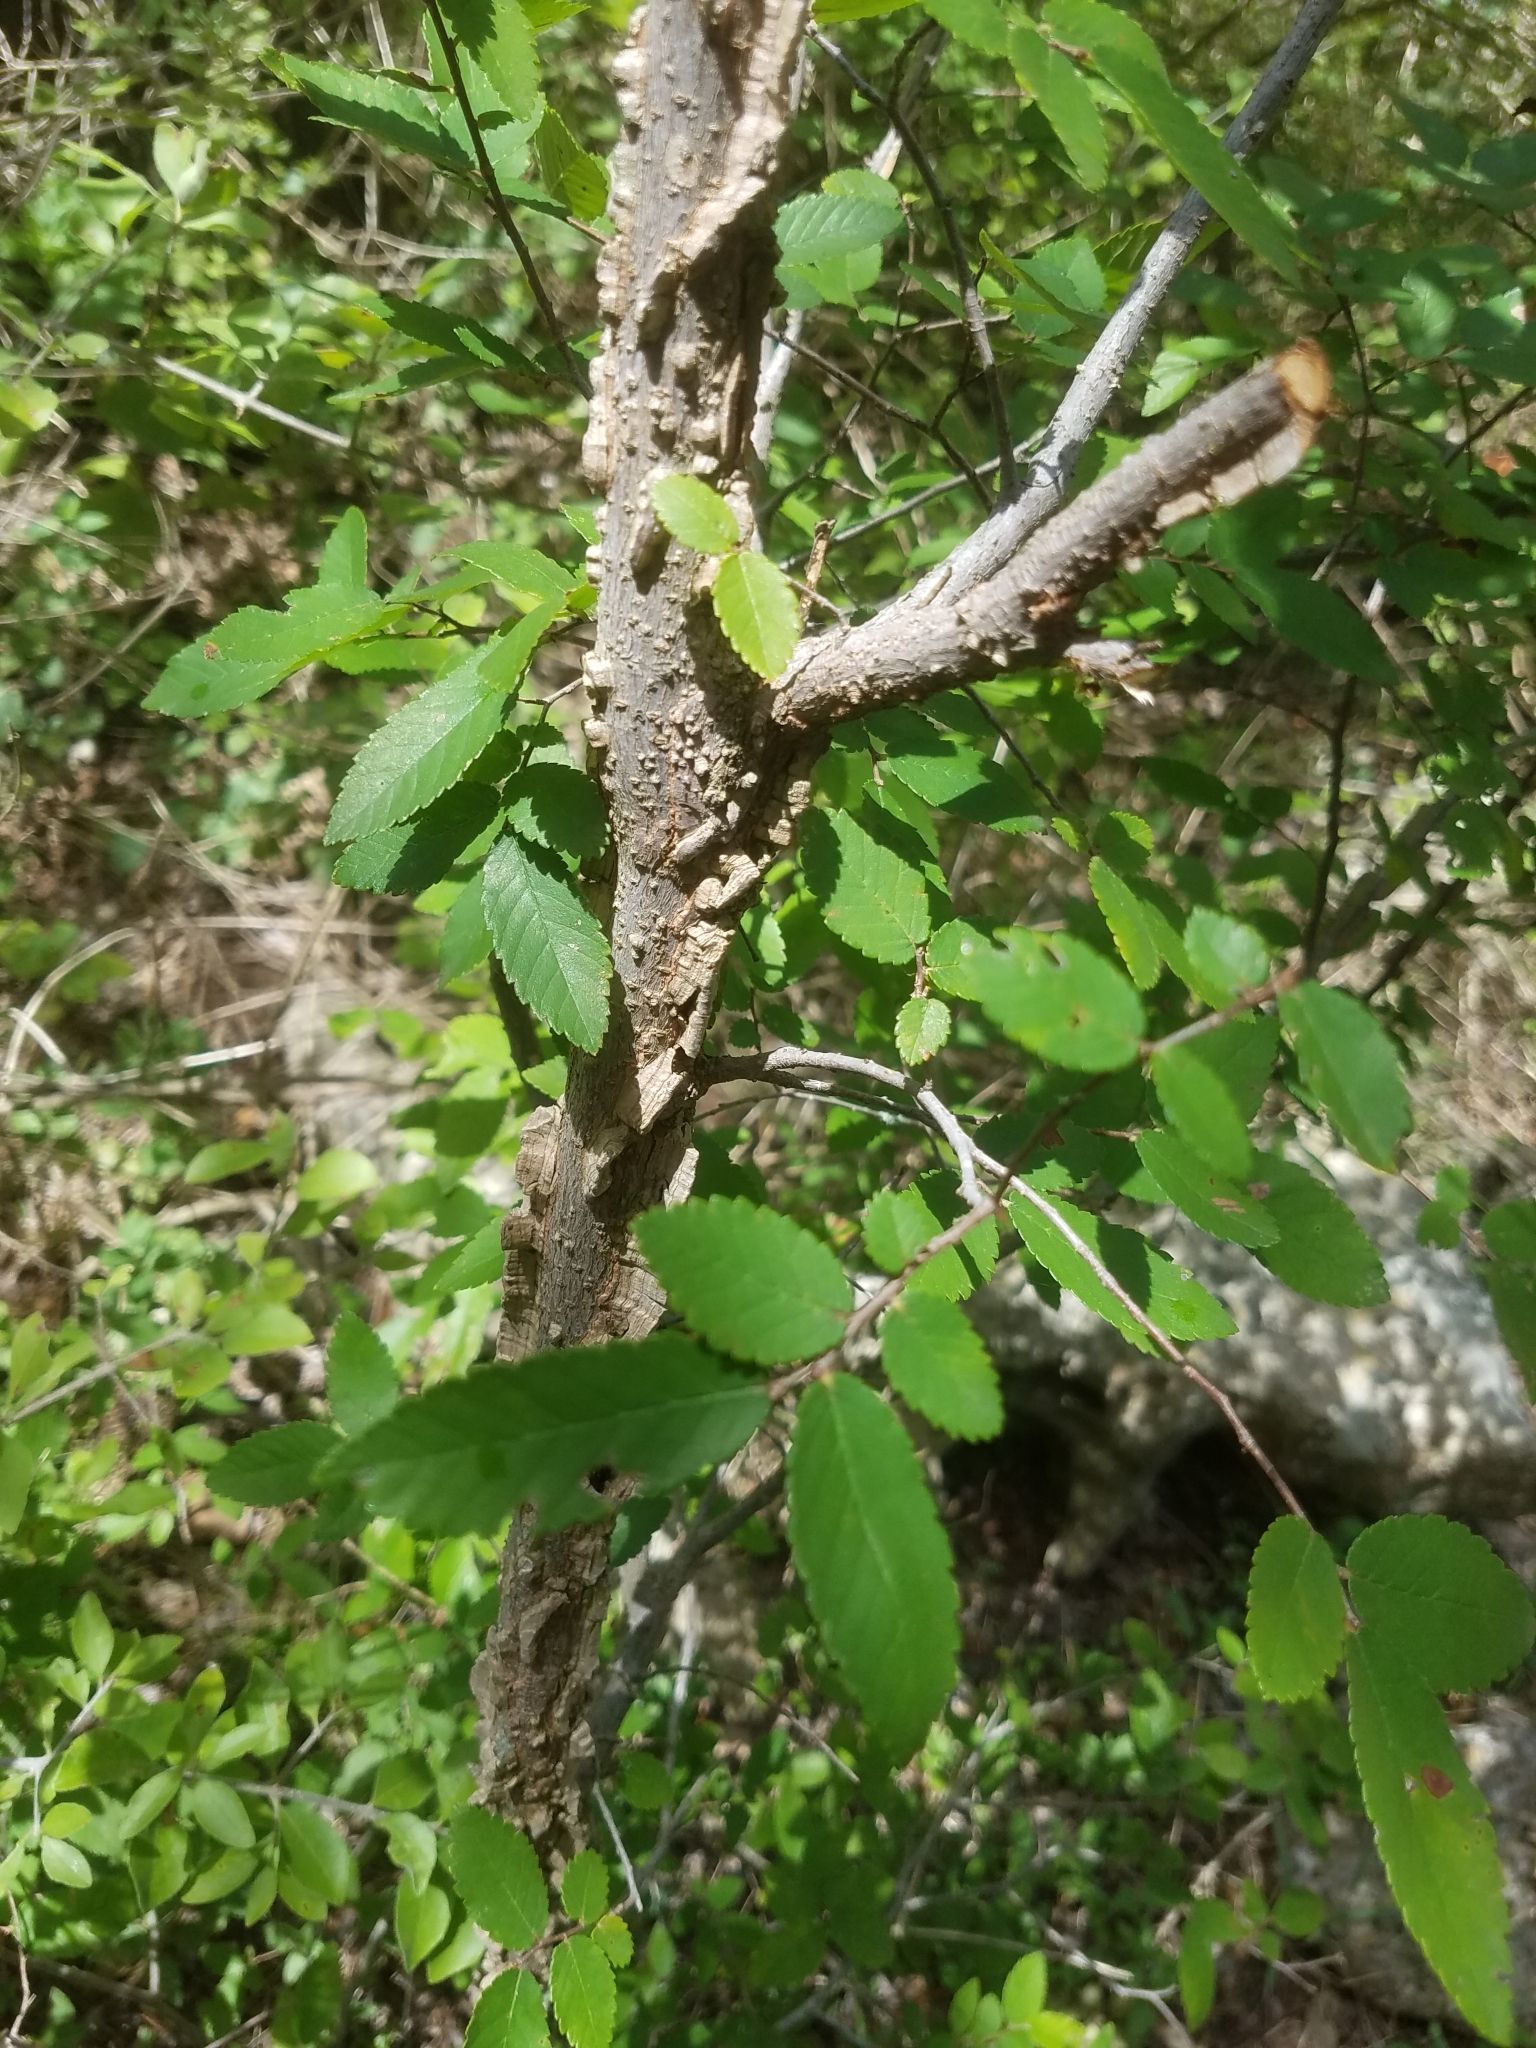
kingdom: Plantae
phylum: Tracheophyta
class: Magnoliopsida
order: Rosales
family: Ulmaceae
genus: Ulmus
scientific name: Ulmus crassifolia
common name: Basket elm
